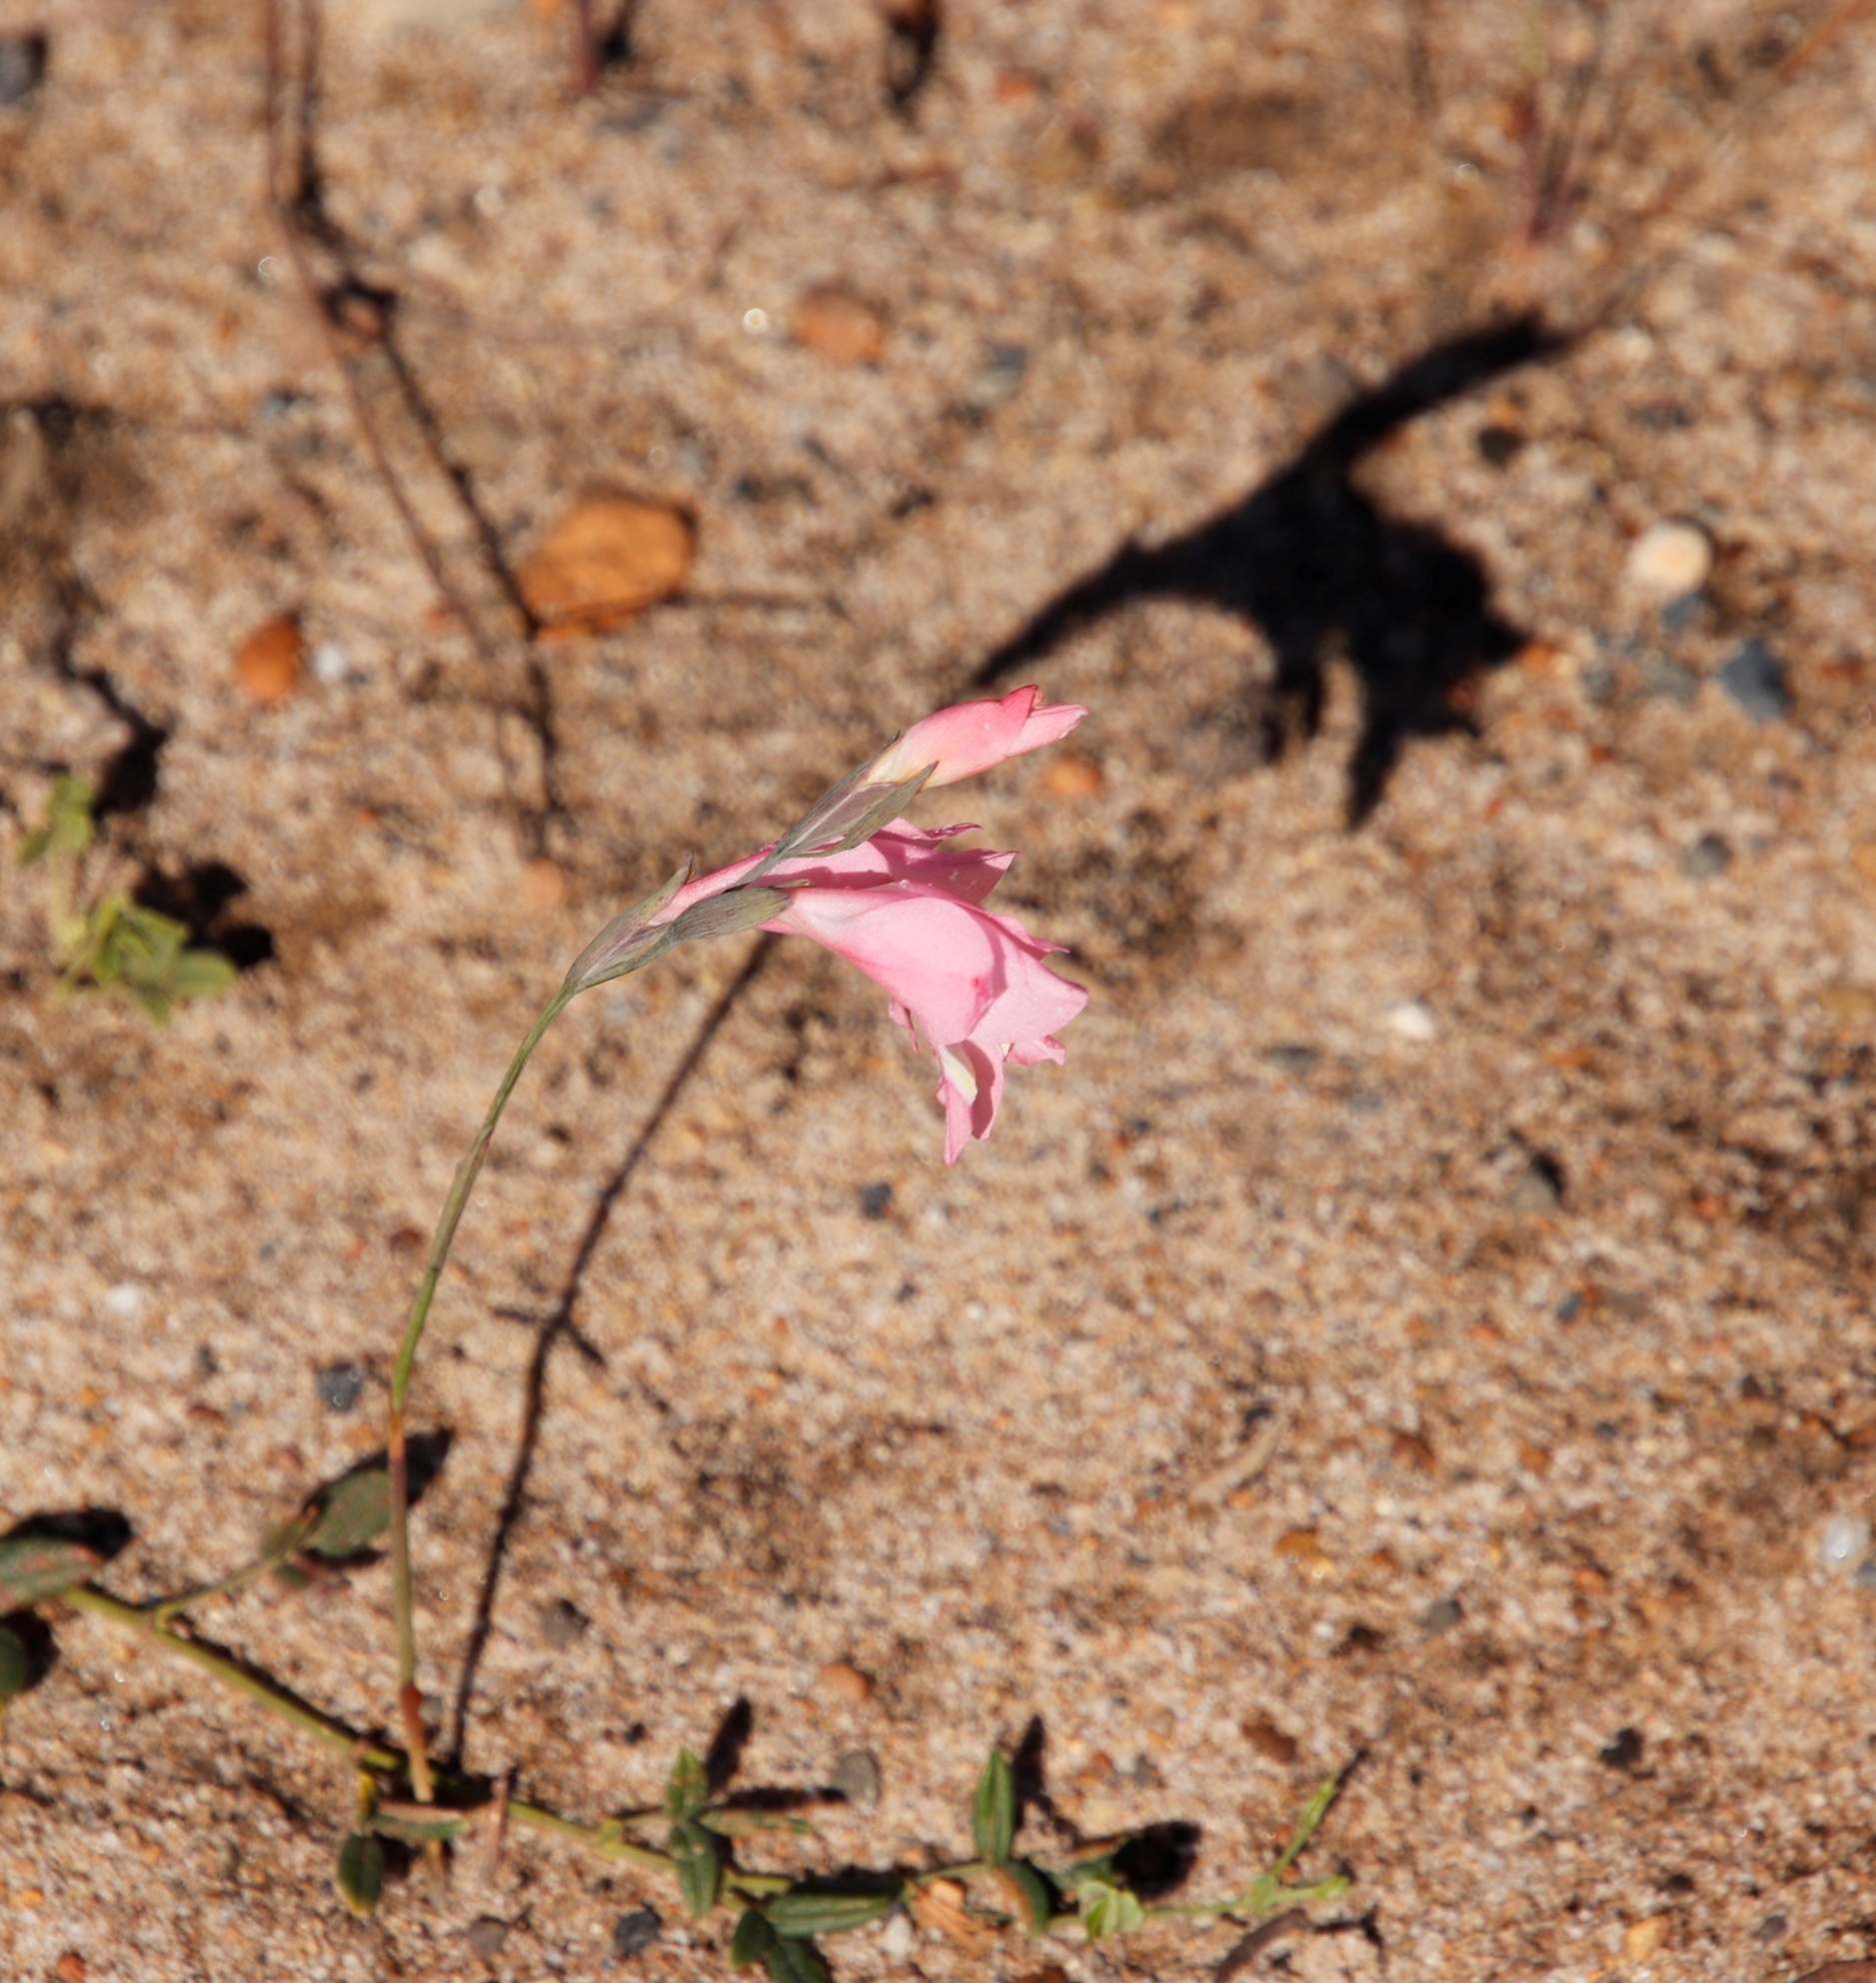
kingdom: Plantae
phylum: Tracheophyta
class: Liliopsida
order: Asparagales
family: Iridaceae
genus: Gladiolus
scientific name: Gladiolus brevifolius
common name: March pypie
